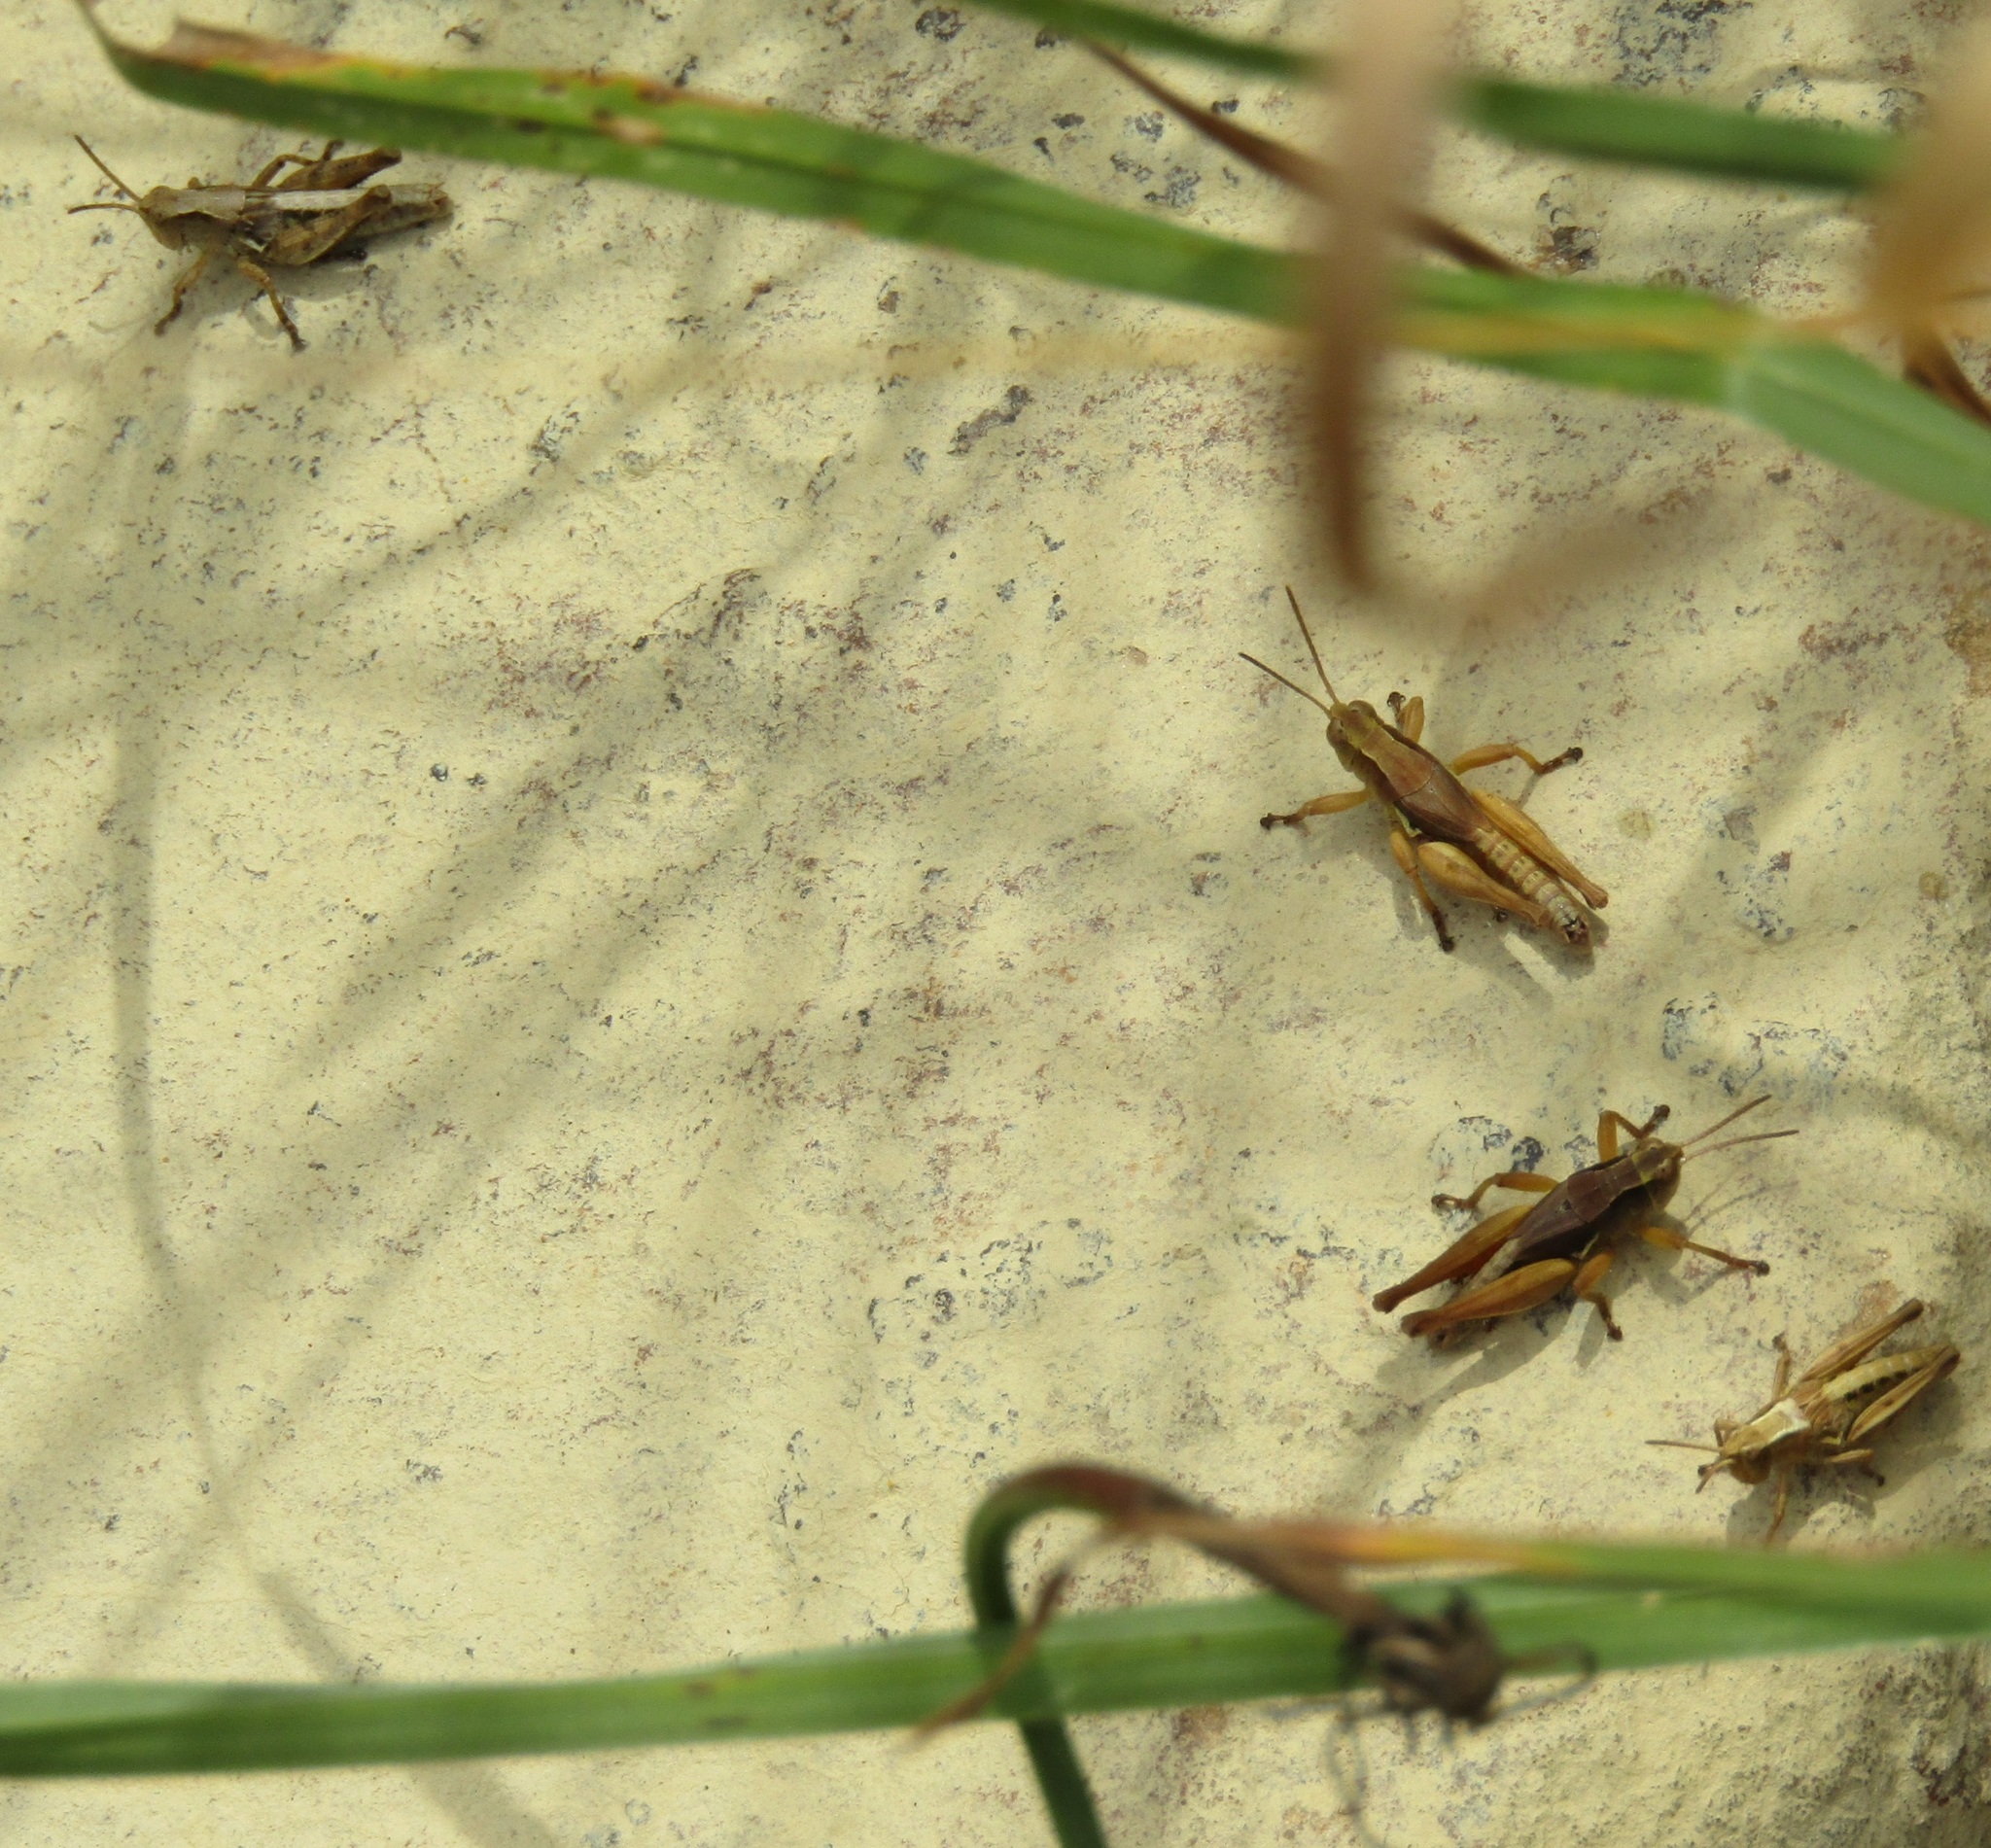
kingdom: Animalia
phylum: Arthropoda
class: Insecta
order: Orthoptera
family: Acrididae
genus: Phaulacridium
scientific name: Phaulacridium marginale
